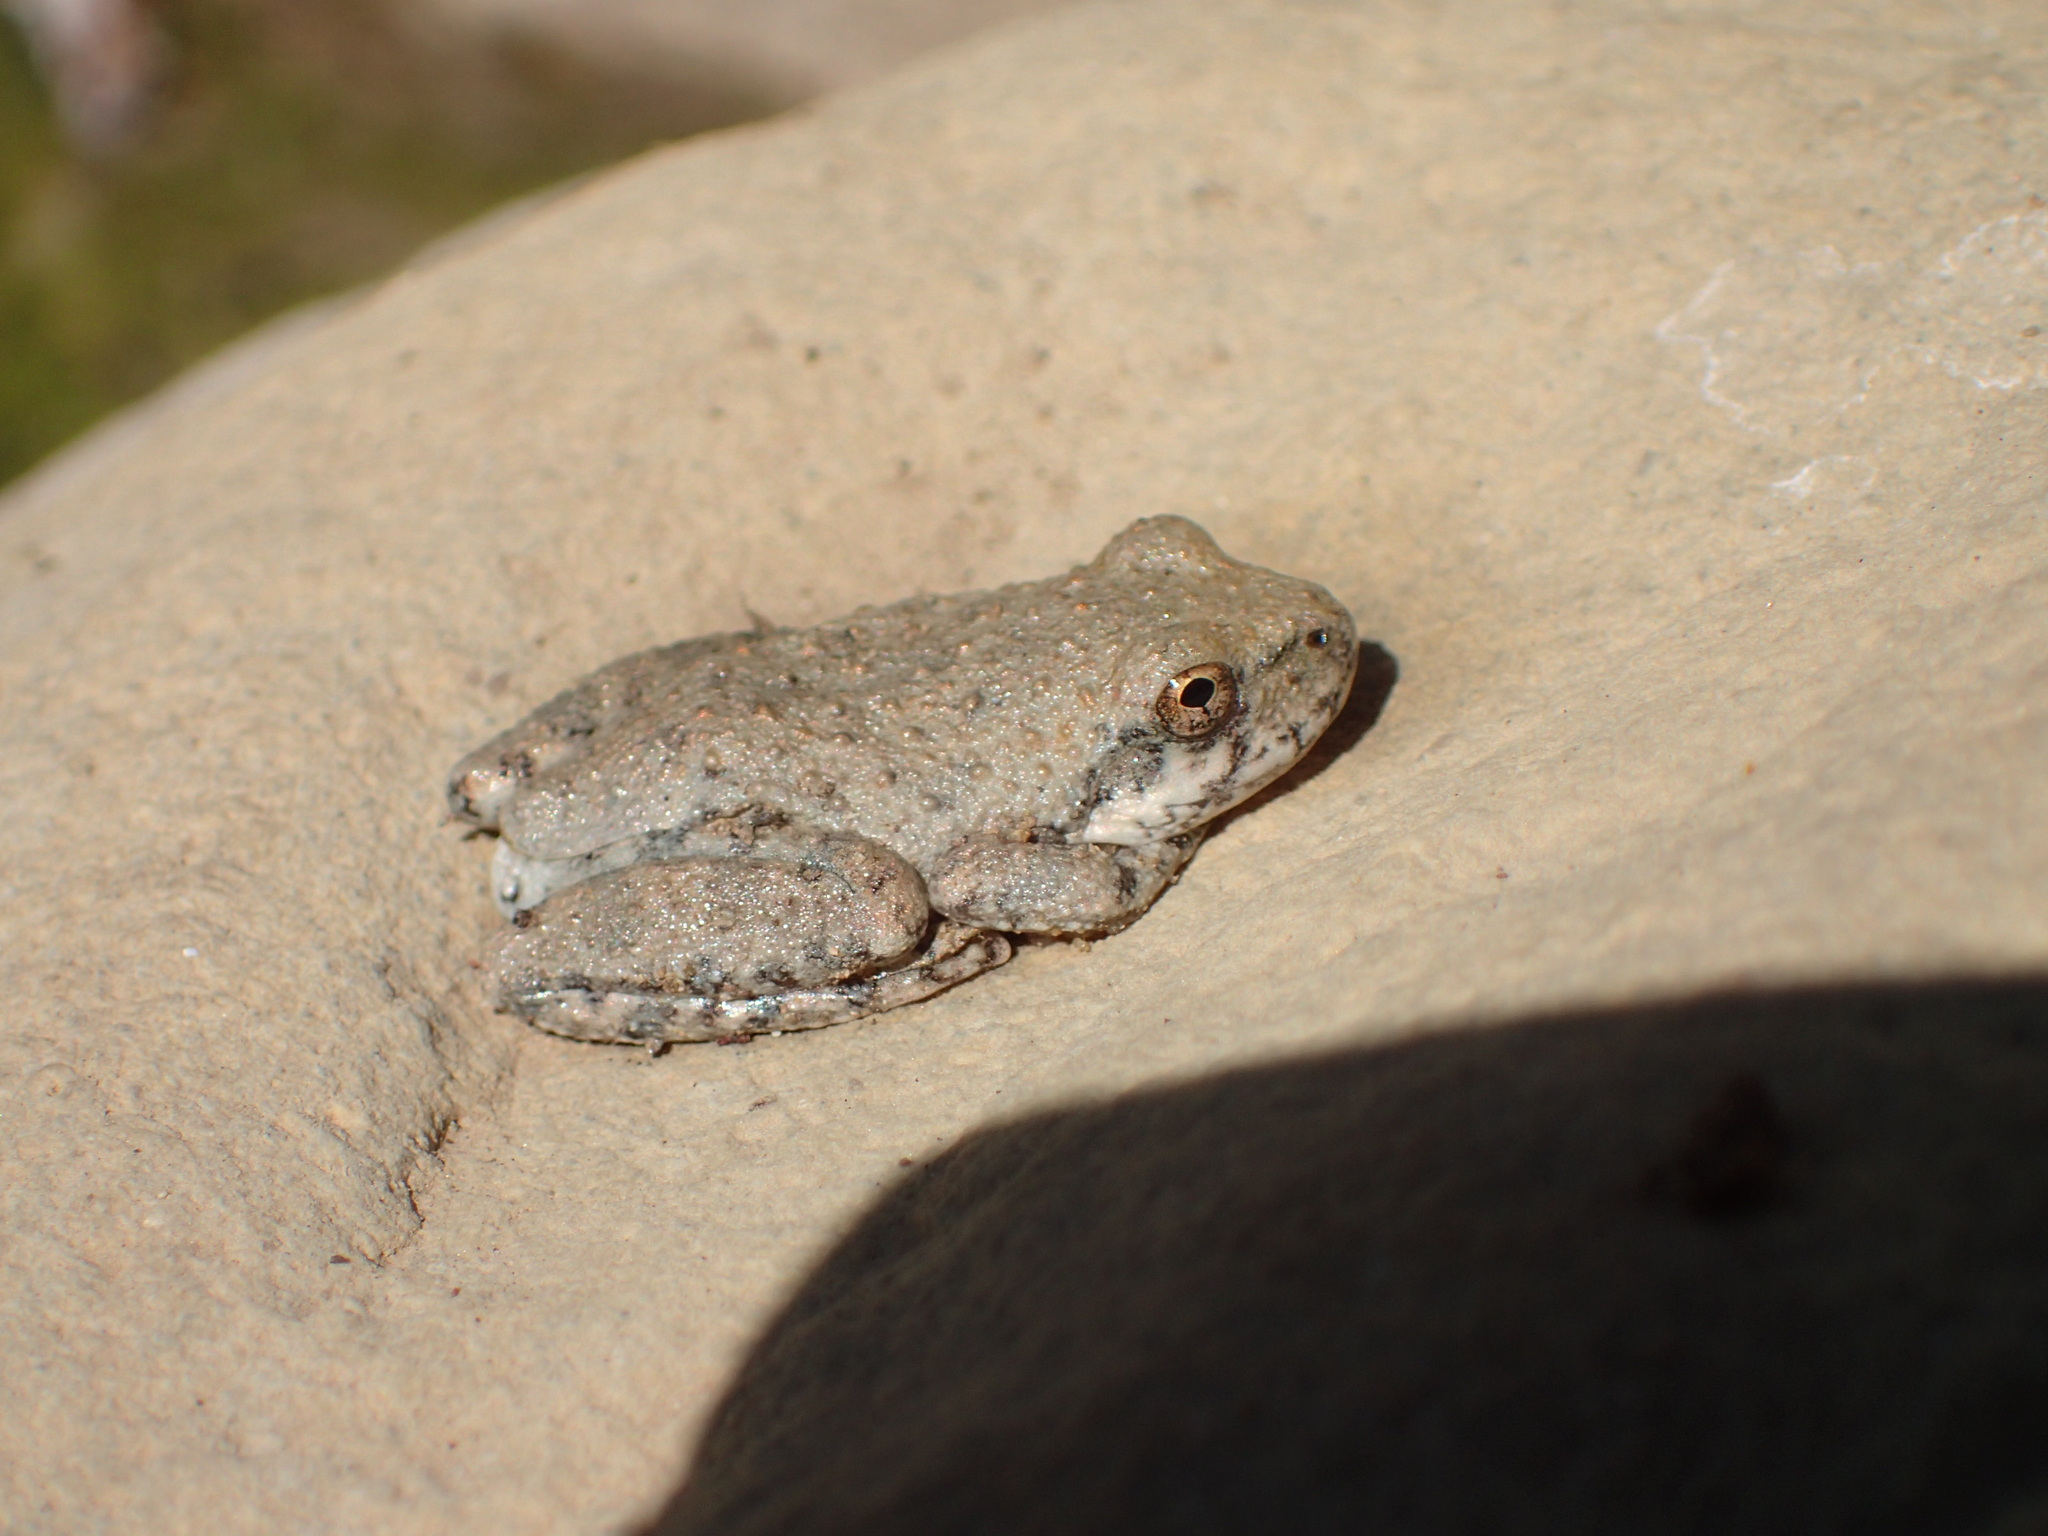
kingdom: Animalia
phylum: Chordata
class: Amphibia
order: Anura
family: Hylidae
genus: Pseudacris
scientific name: Pseudacris cadaverina
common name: California chorus frog
